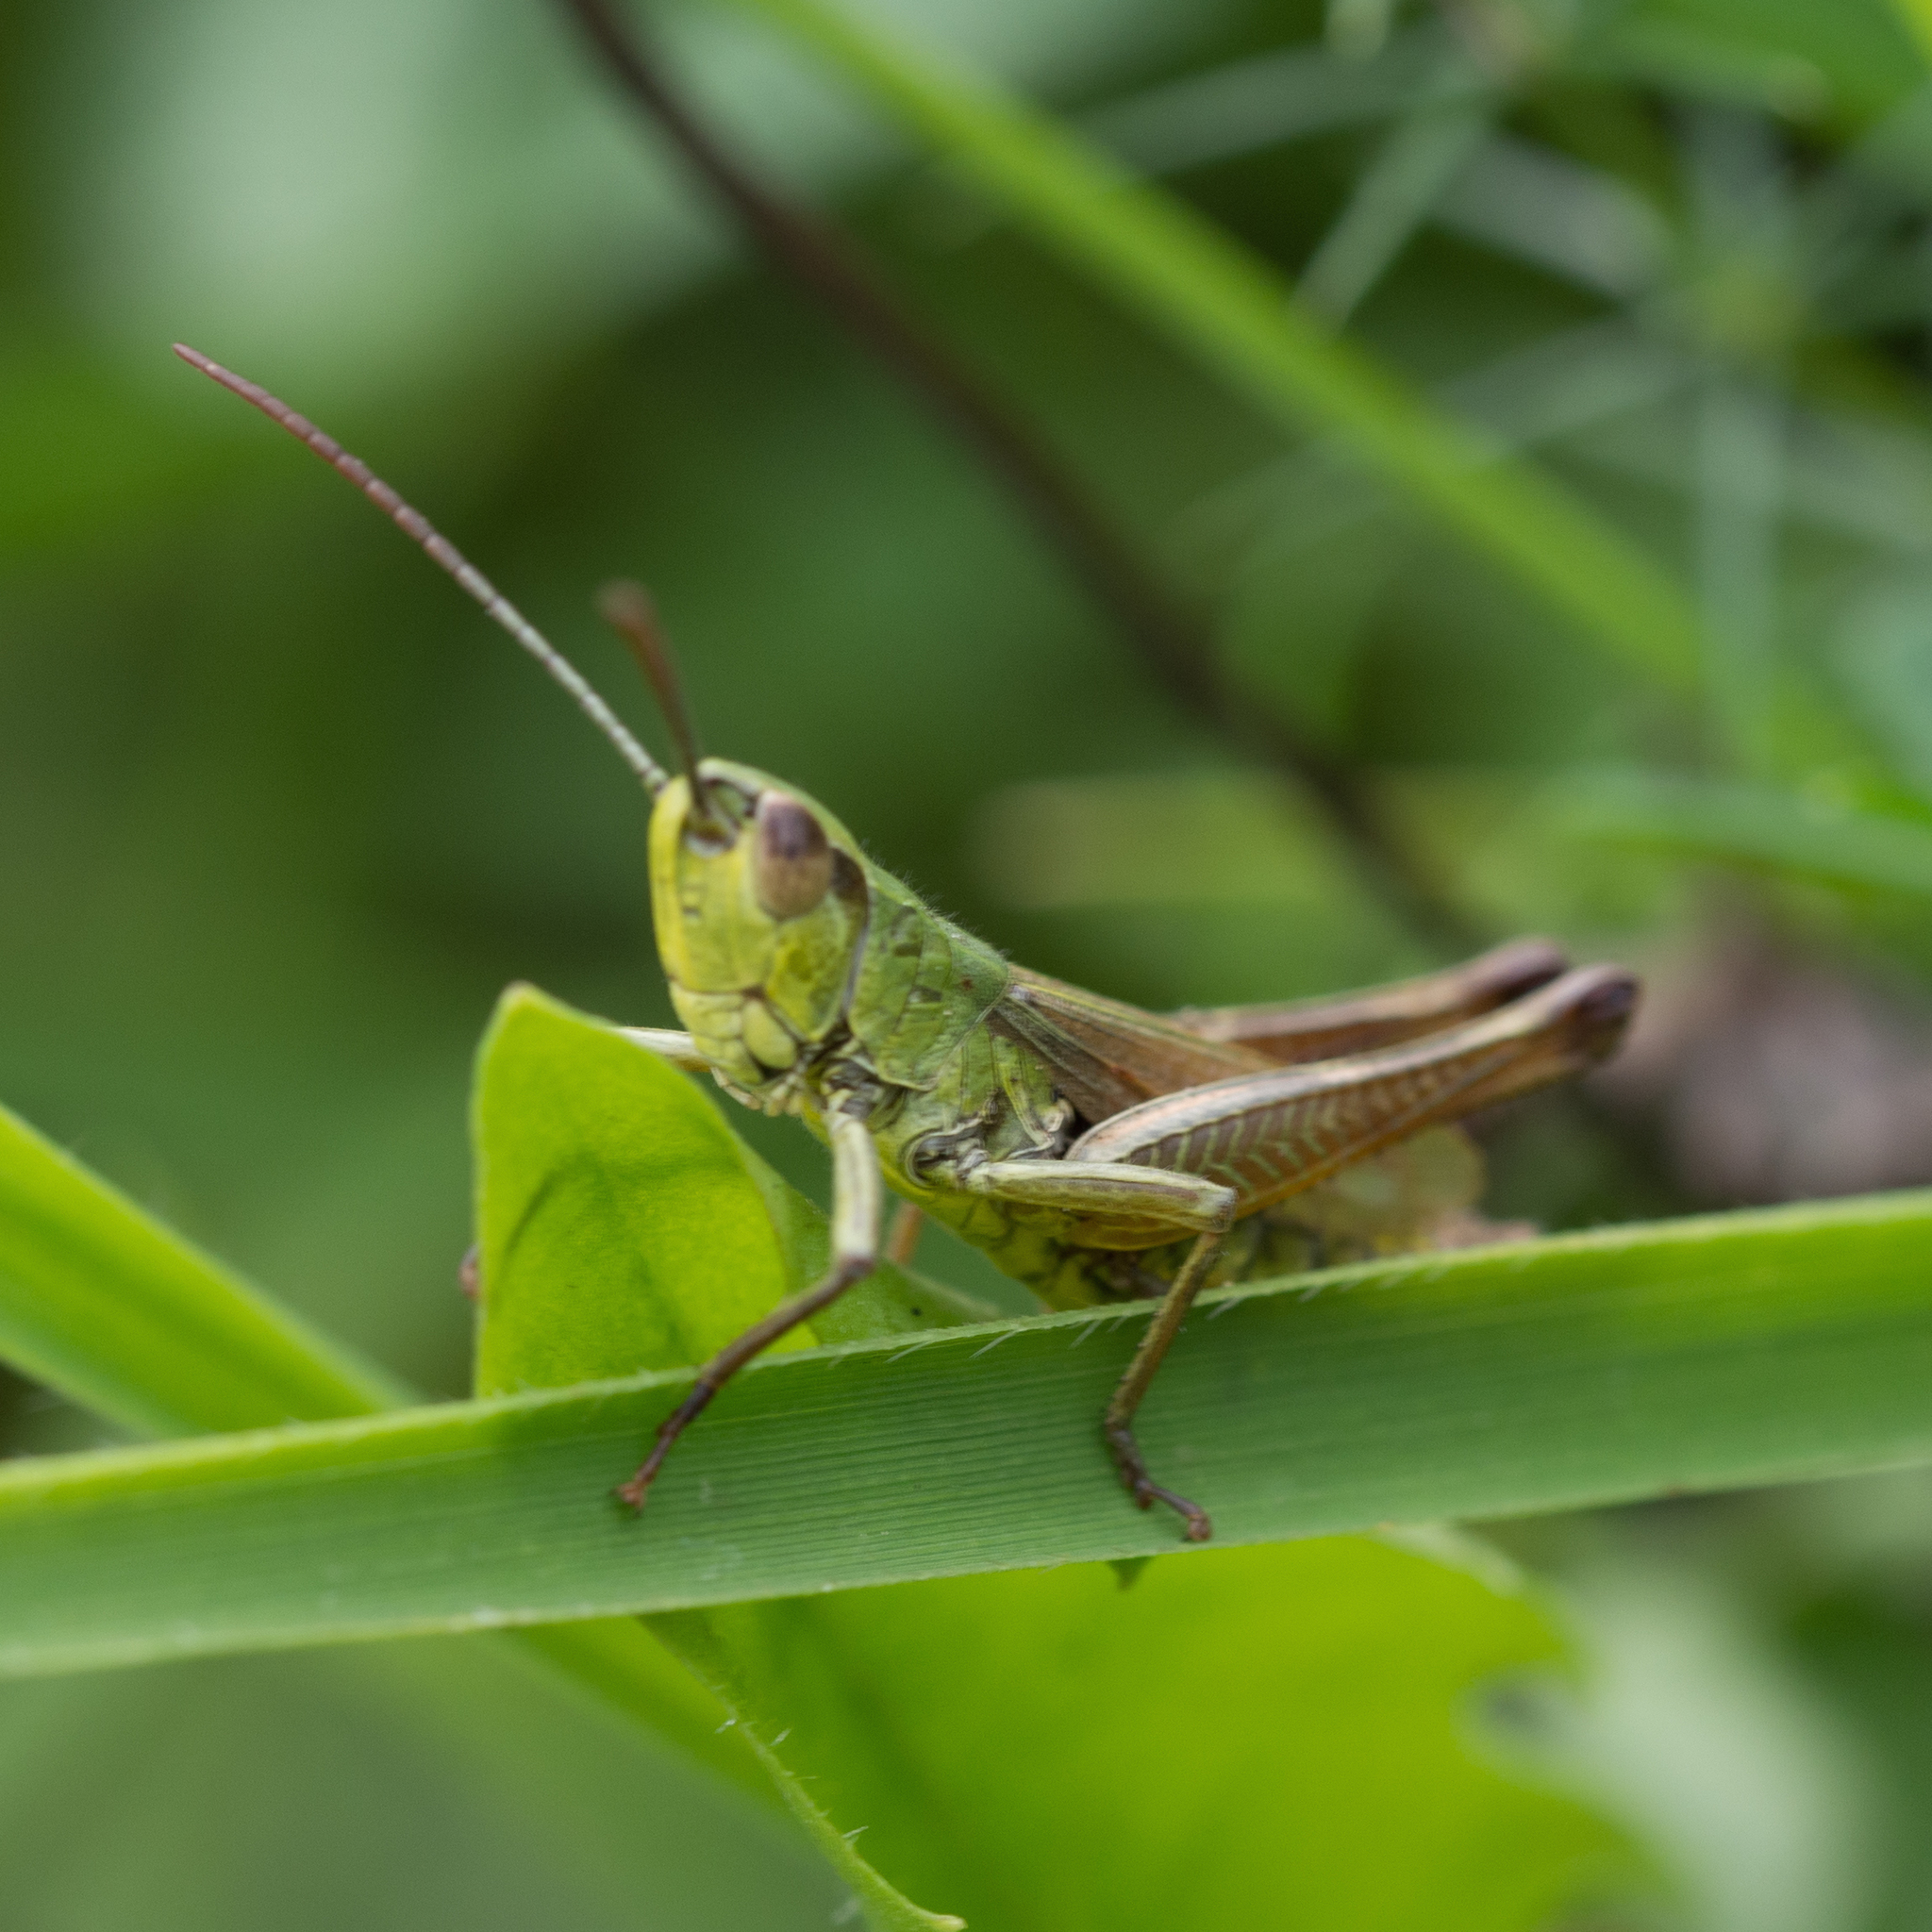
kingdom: Animalia
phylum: Arthropoda
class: Insecta
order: Orthoptera
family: Acrididae
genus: Pseudochorthippus
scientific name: Pseudochorthippus parallelus
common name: Meadow grasshopper
